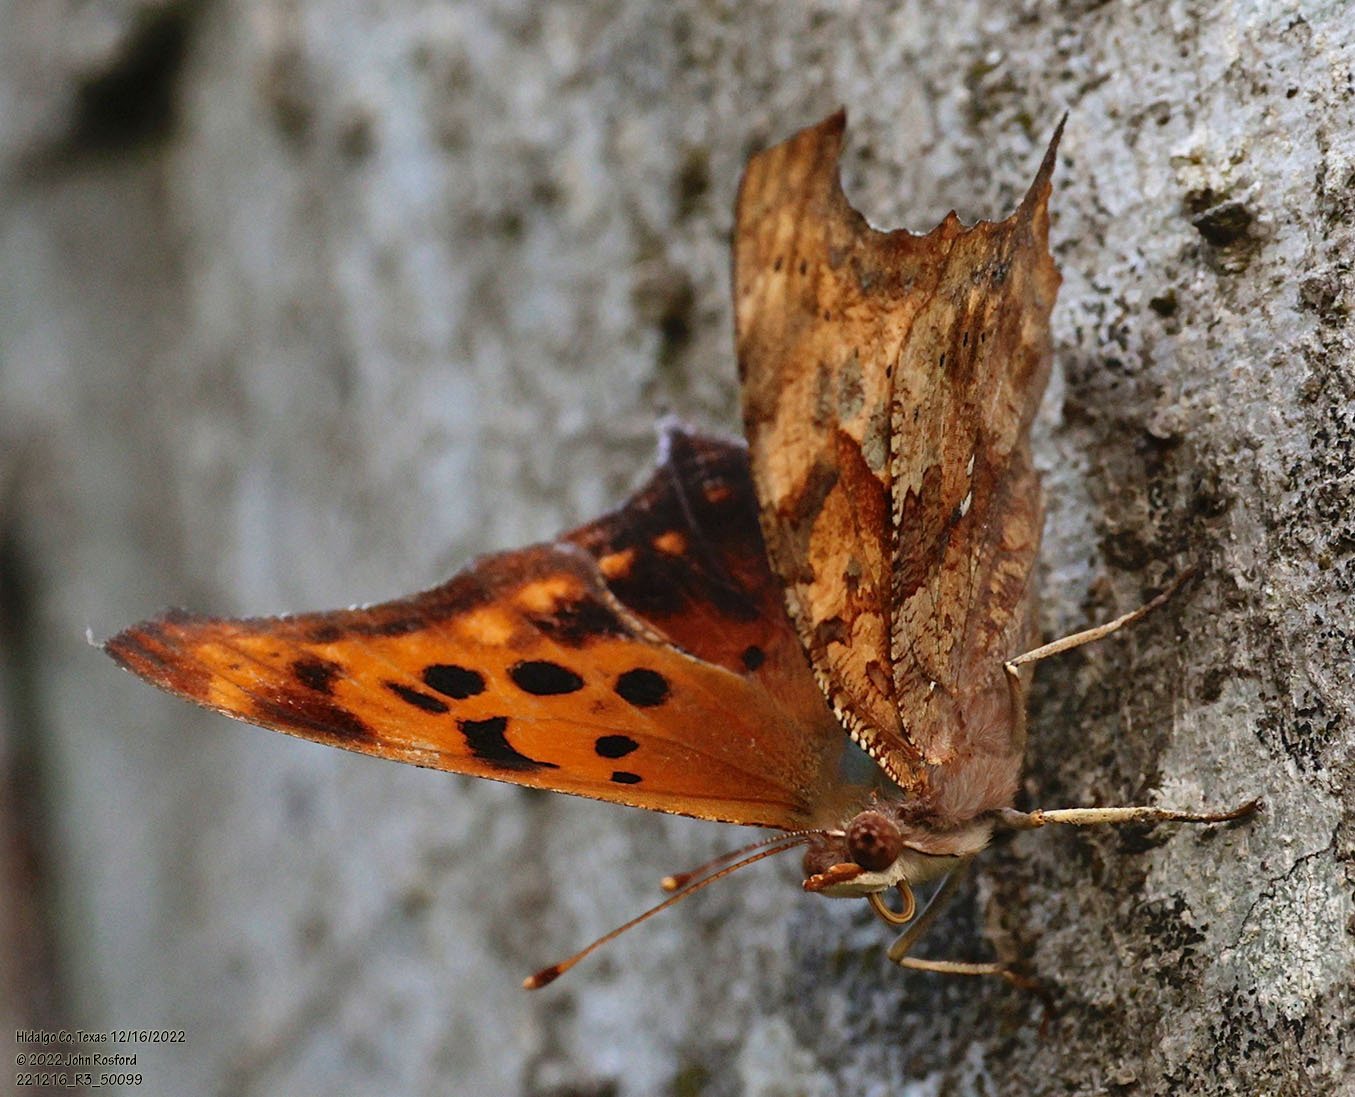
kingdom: Animalia
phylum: Arthropoda
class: Insecta
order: Lepidoptera
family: Nymphalidae
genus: Polygonia
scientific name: Polygonia interrogationis
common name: Question mark
